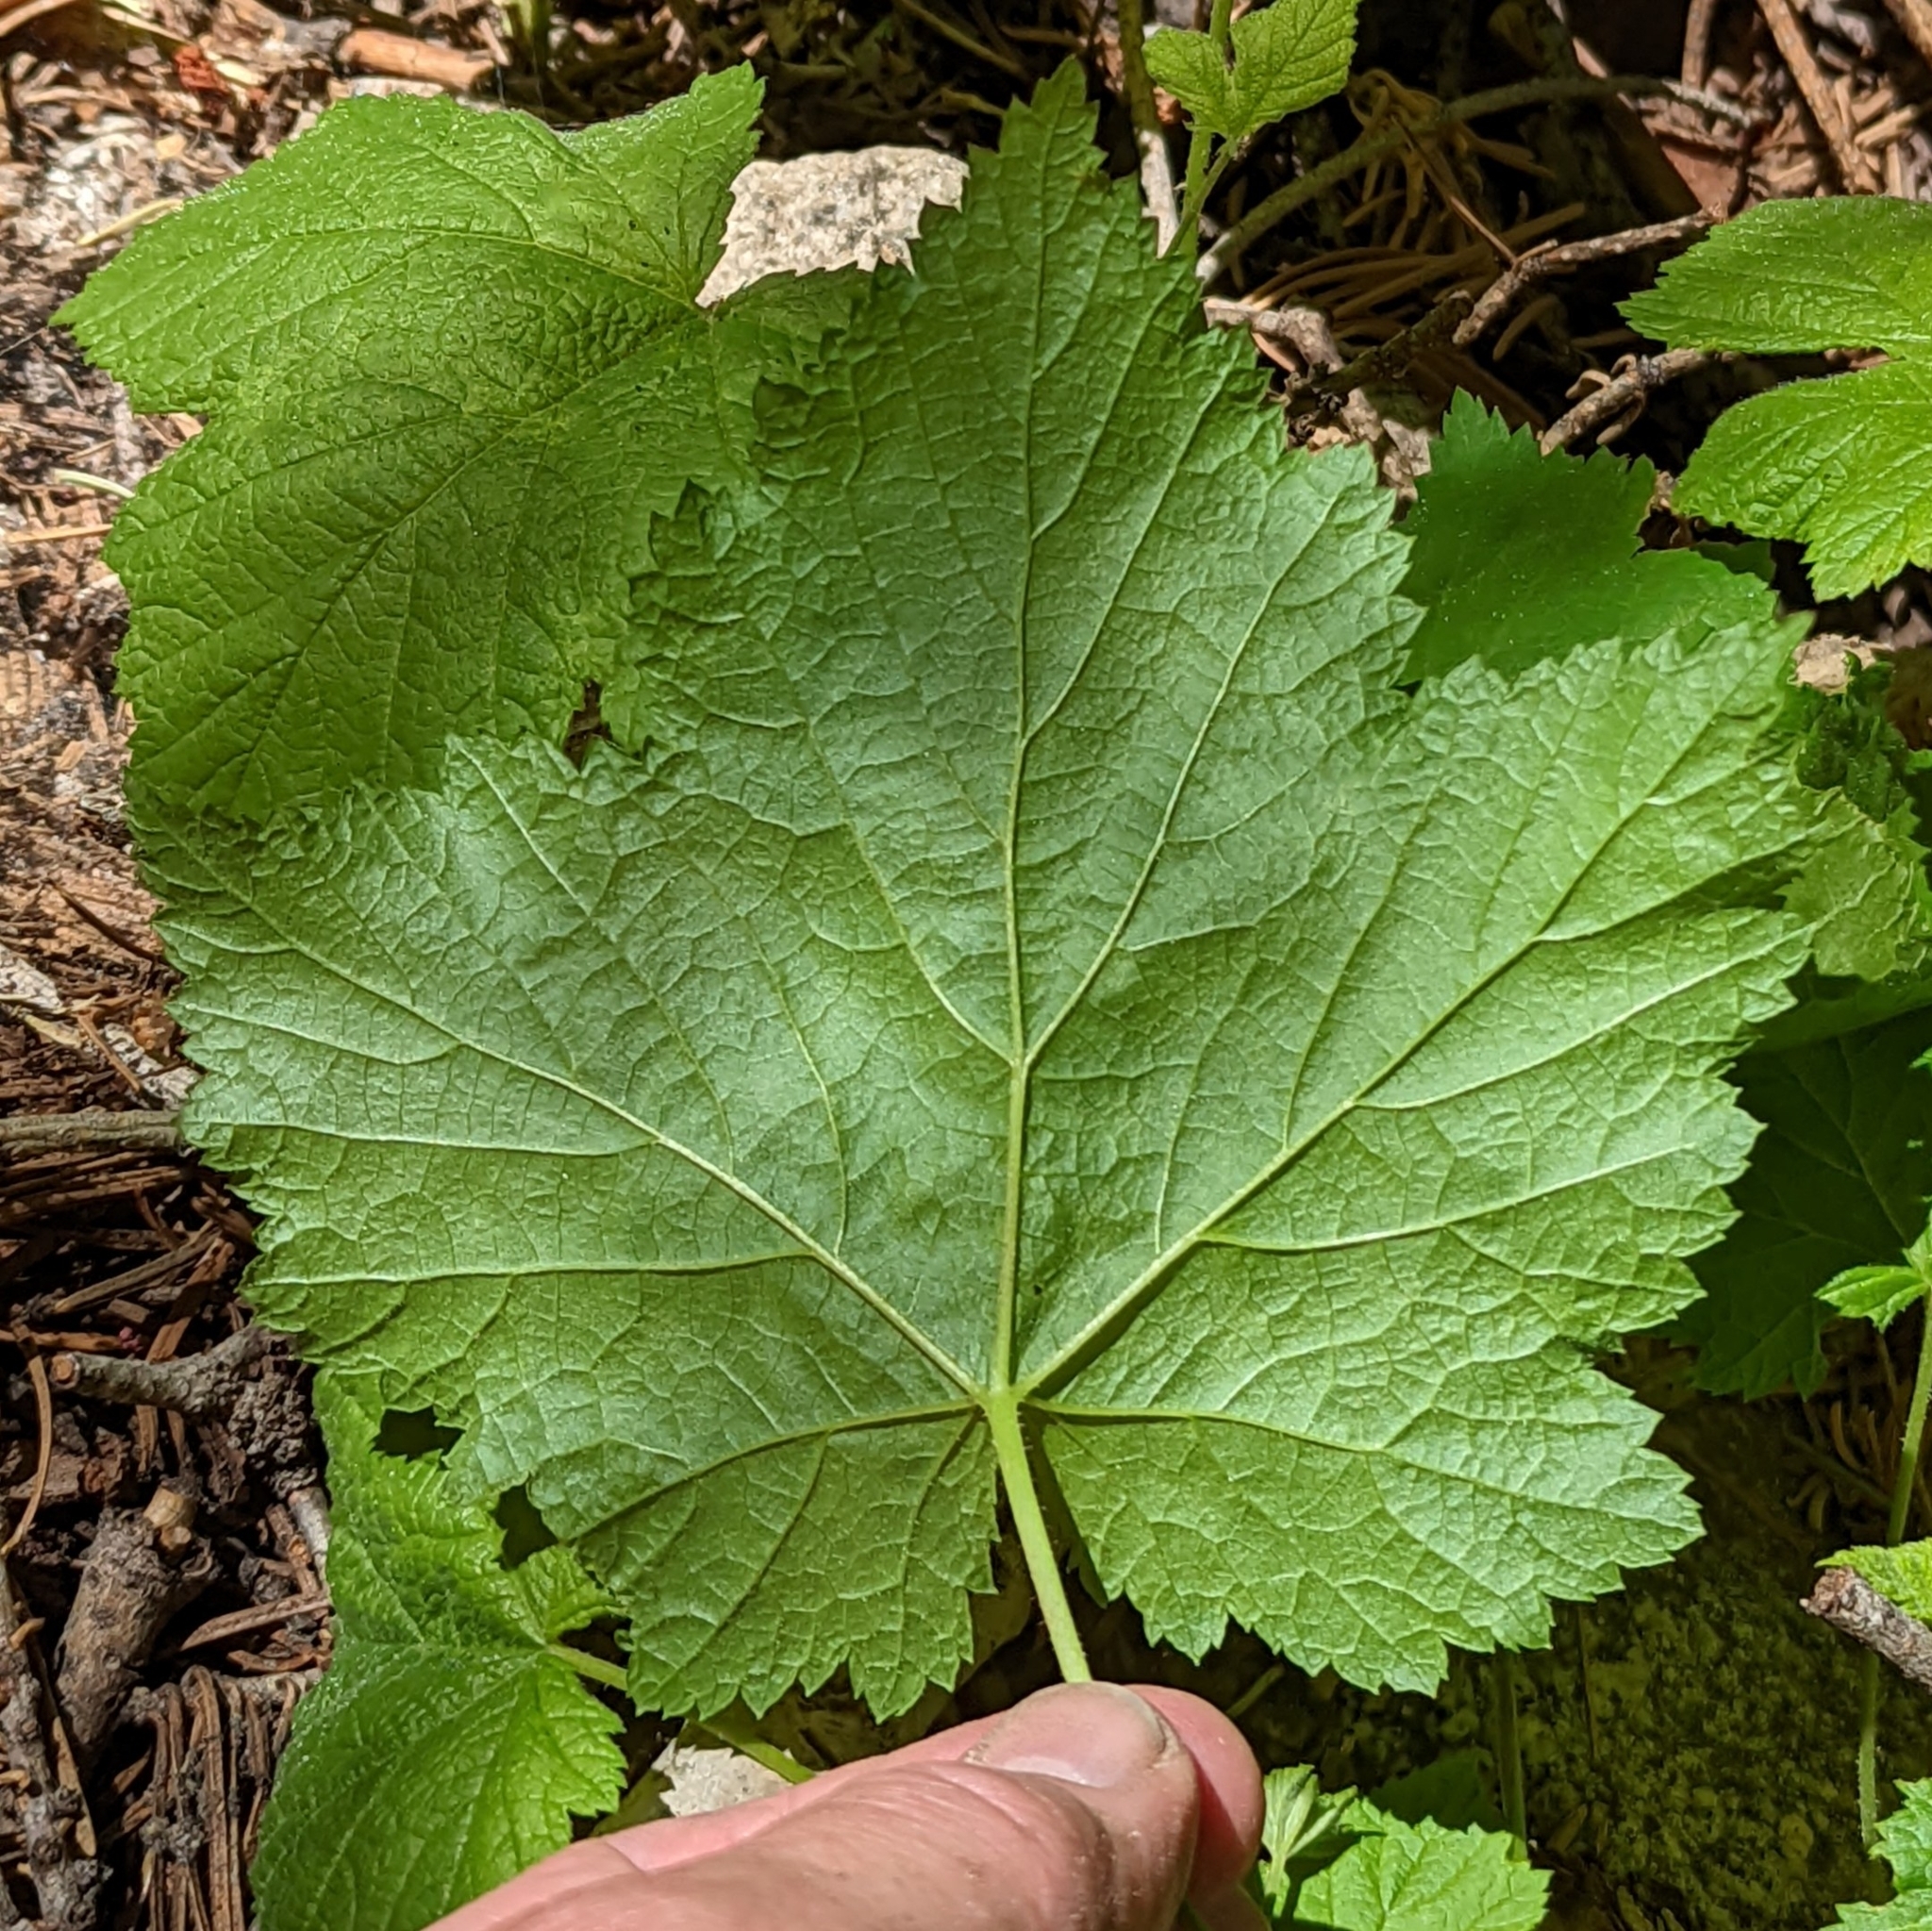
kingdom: Plantae
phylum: Tracheophyta
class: Magnoliopsida
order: Rosales
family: Rosaceae
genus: Rubus
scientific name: Rubus parviflorus
